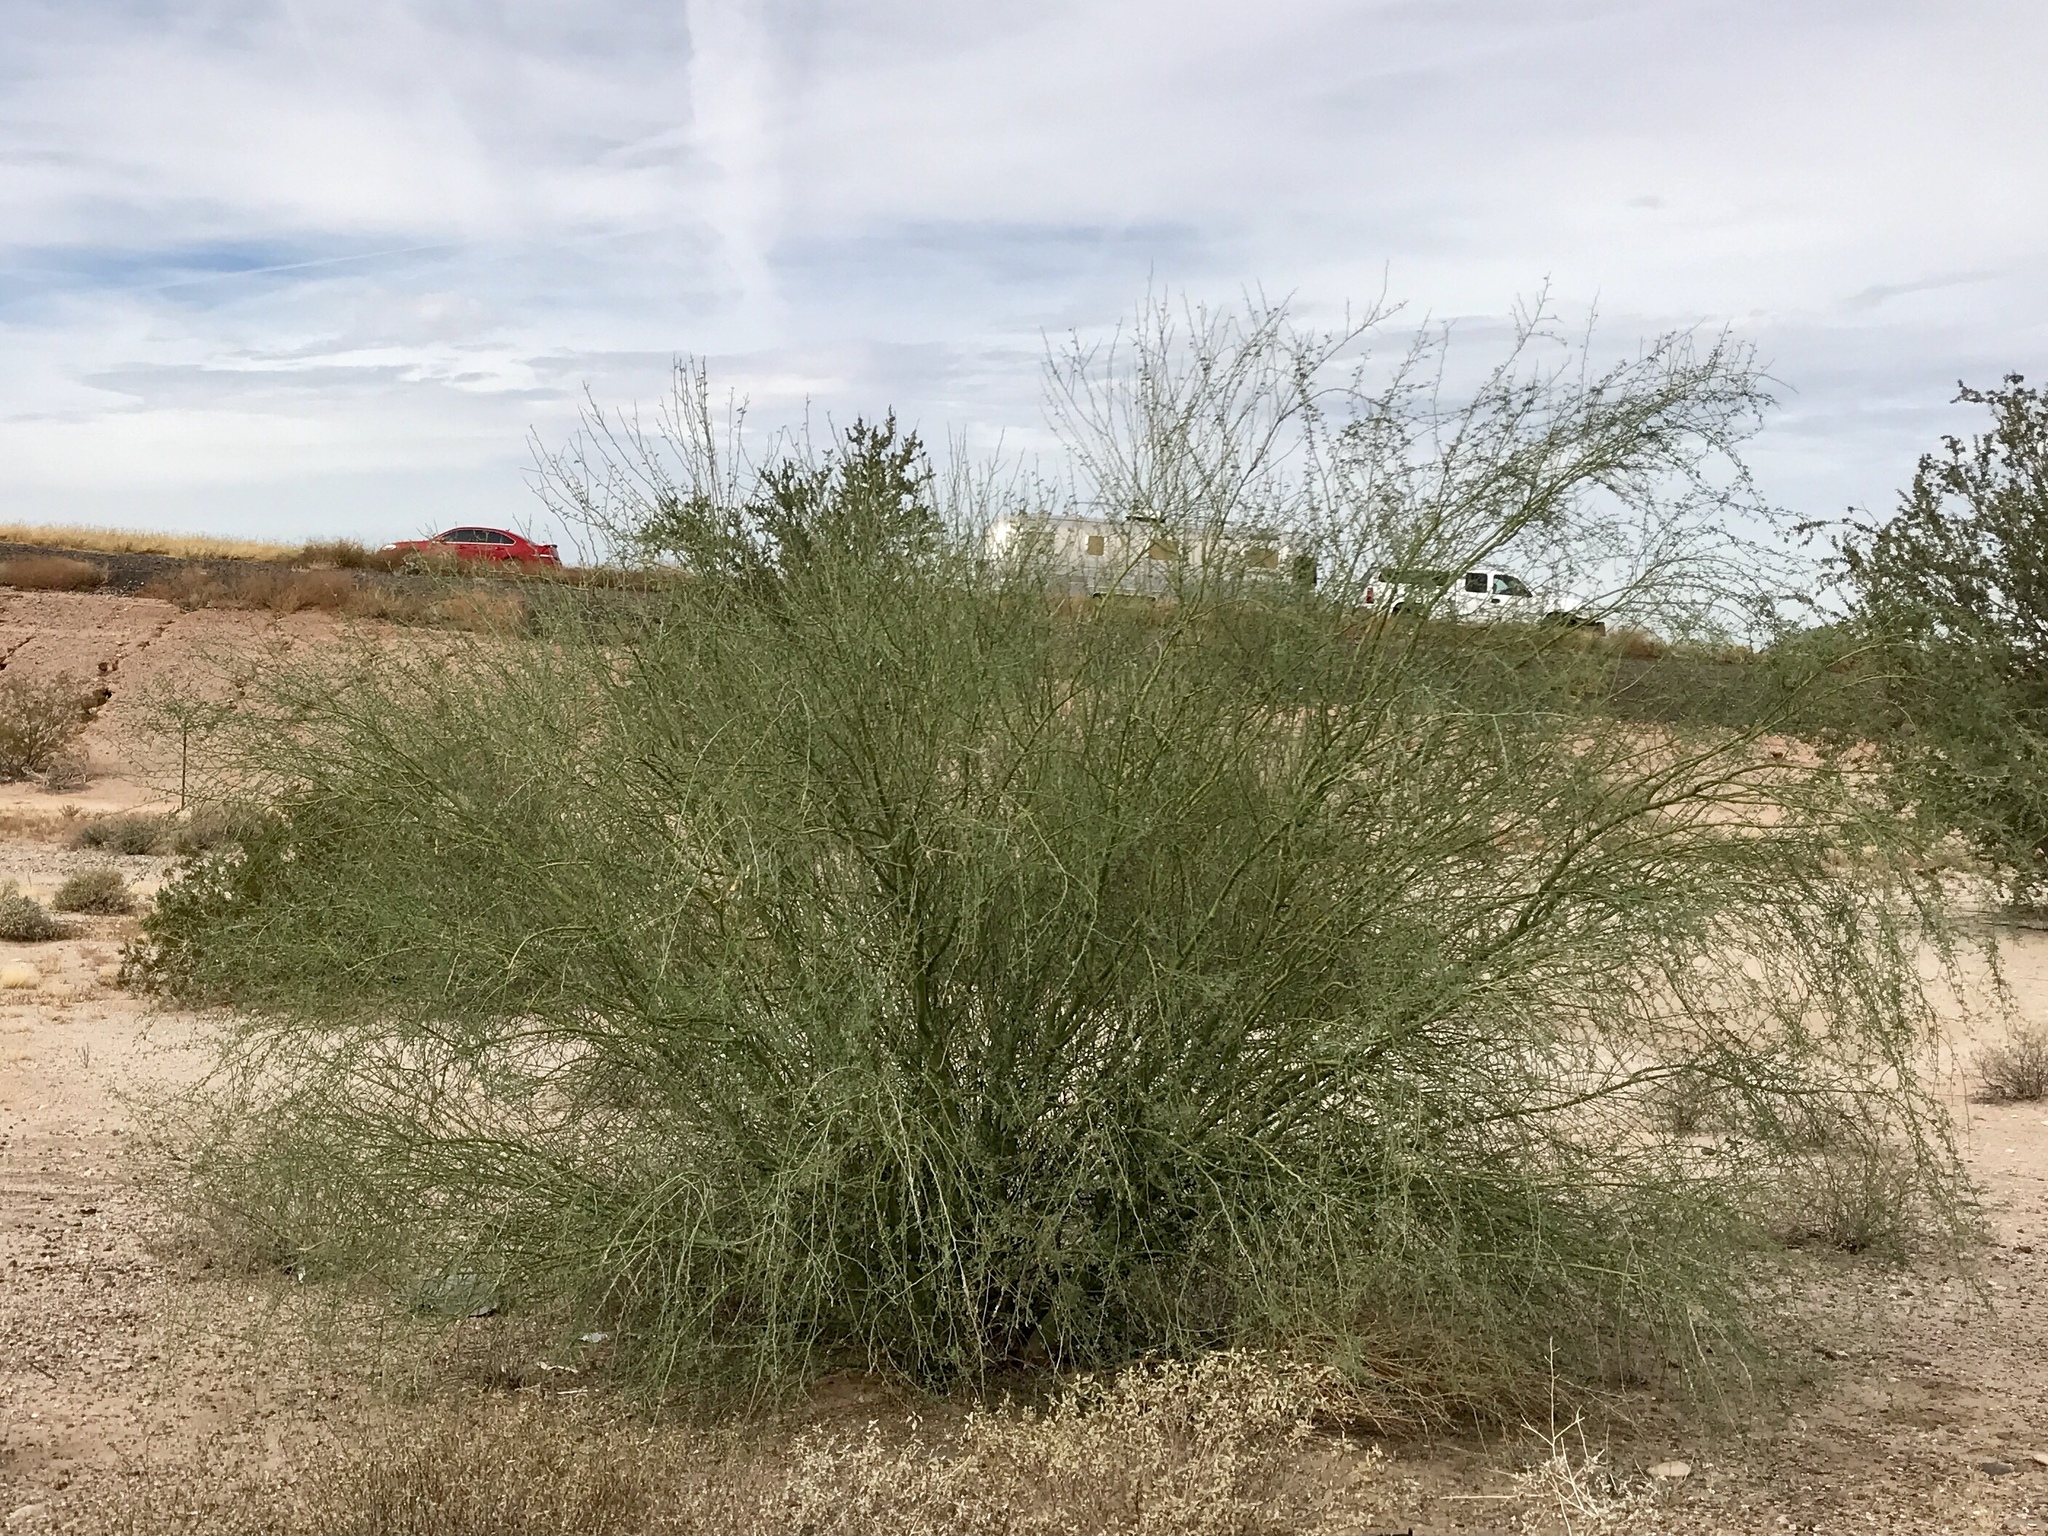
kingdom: Plantae
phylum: Tracheophyta
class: Magnoliopsida
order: Fabales
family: Fabaceae
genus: Parkinsonia
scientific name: Parkinsonia florida
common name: Blue paloverde
